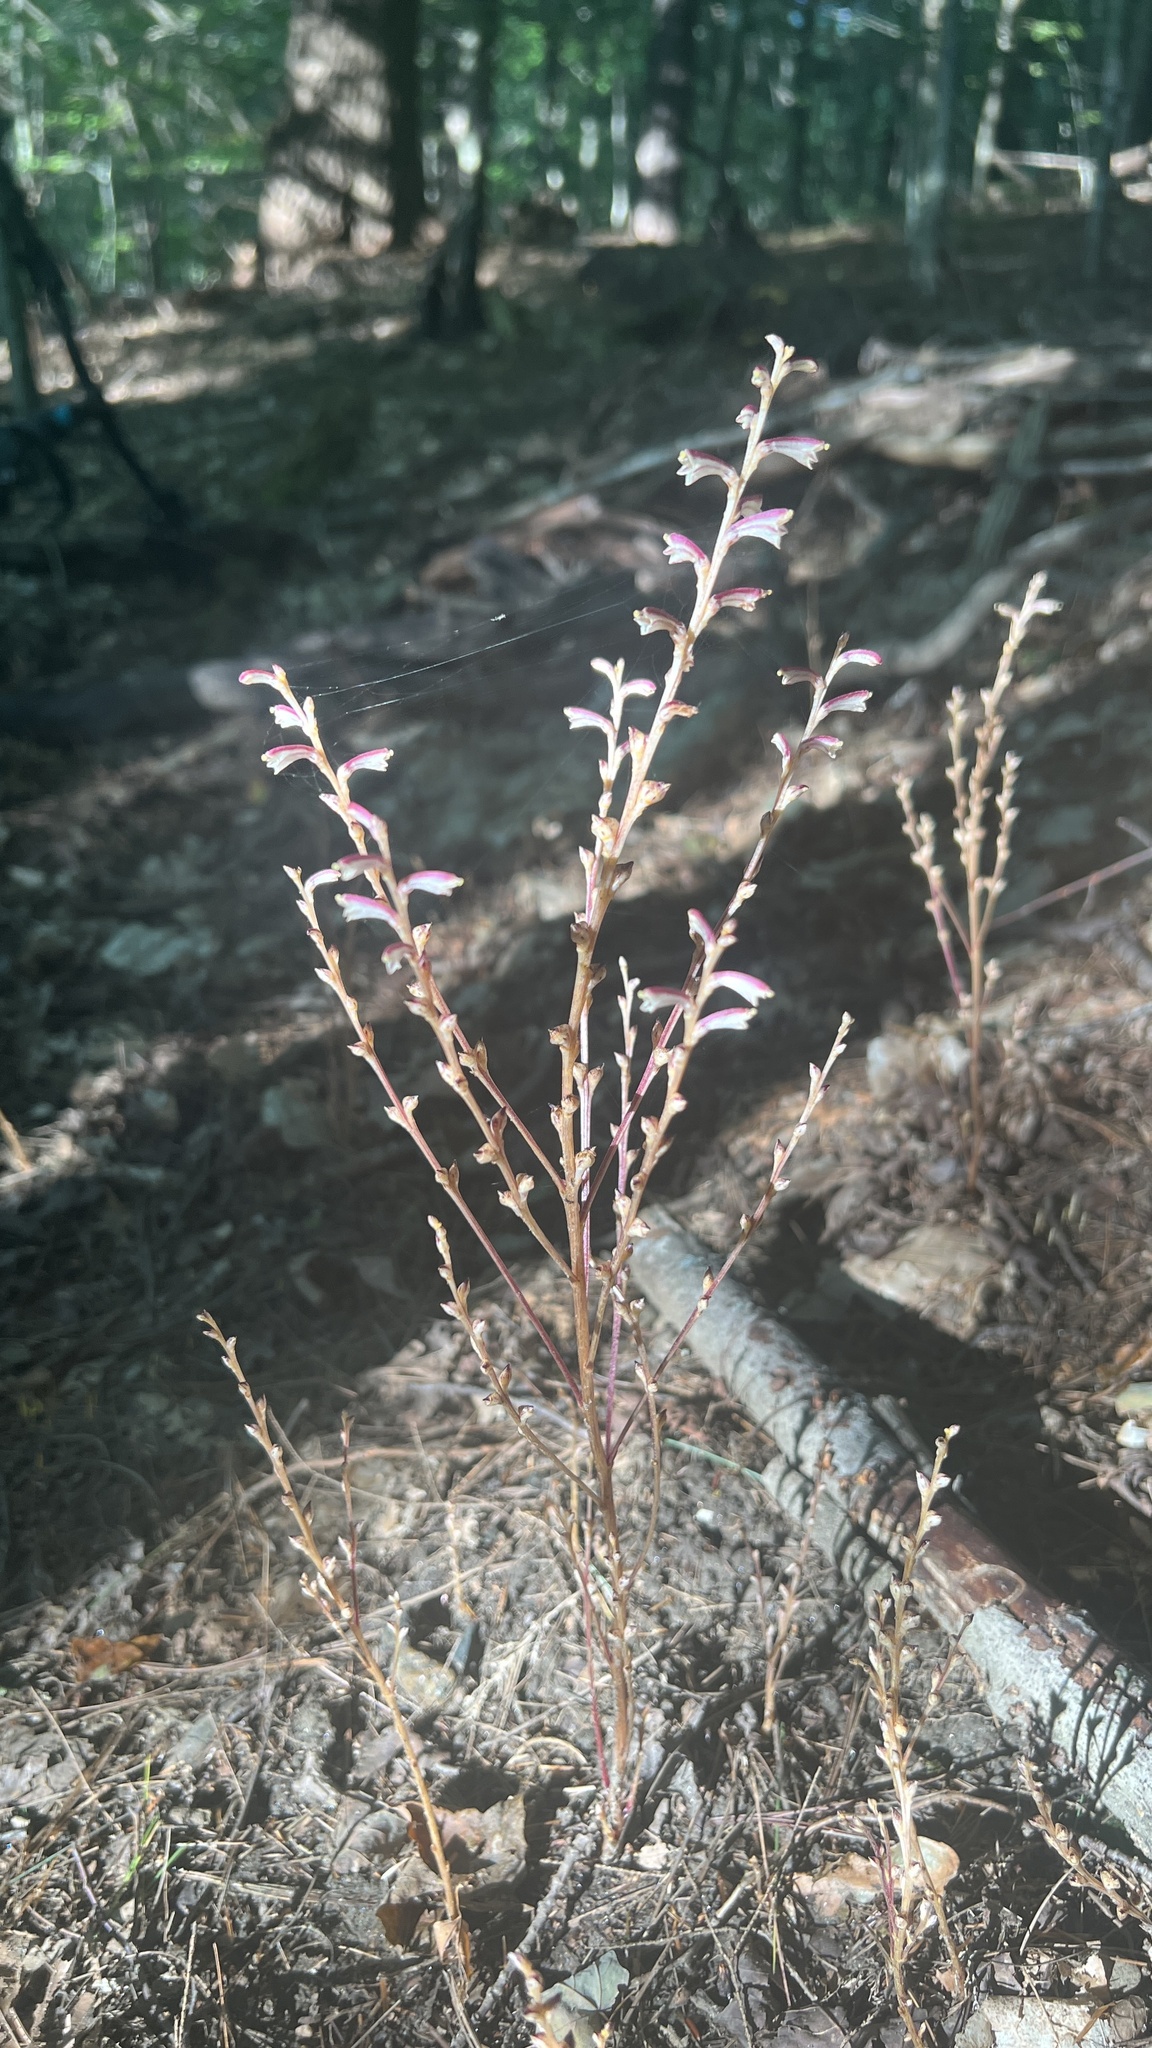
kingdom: Plantae
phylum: Tracheophyta
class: Magnoliopsida
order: Lamiales
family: Orobanchaceae
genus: Epifagus
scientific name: Epifagus virginiana
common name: Beechdrops
